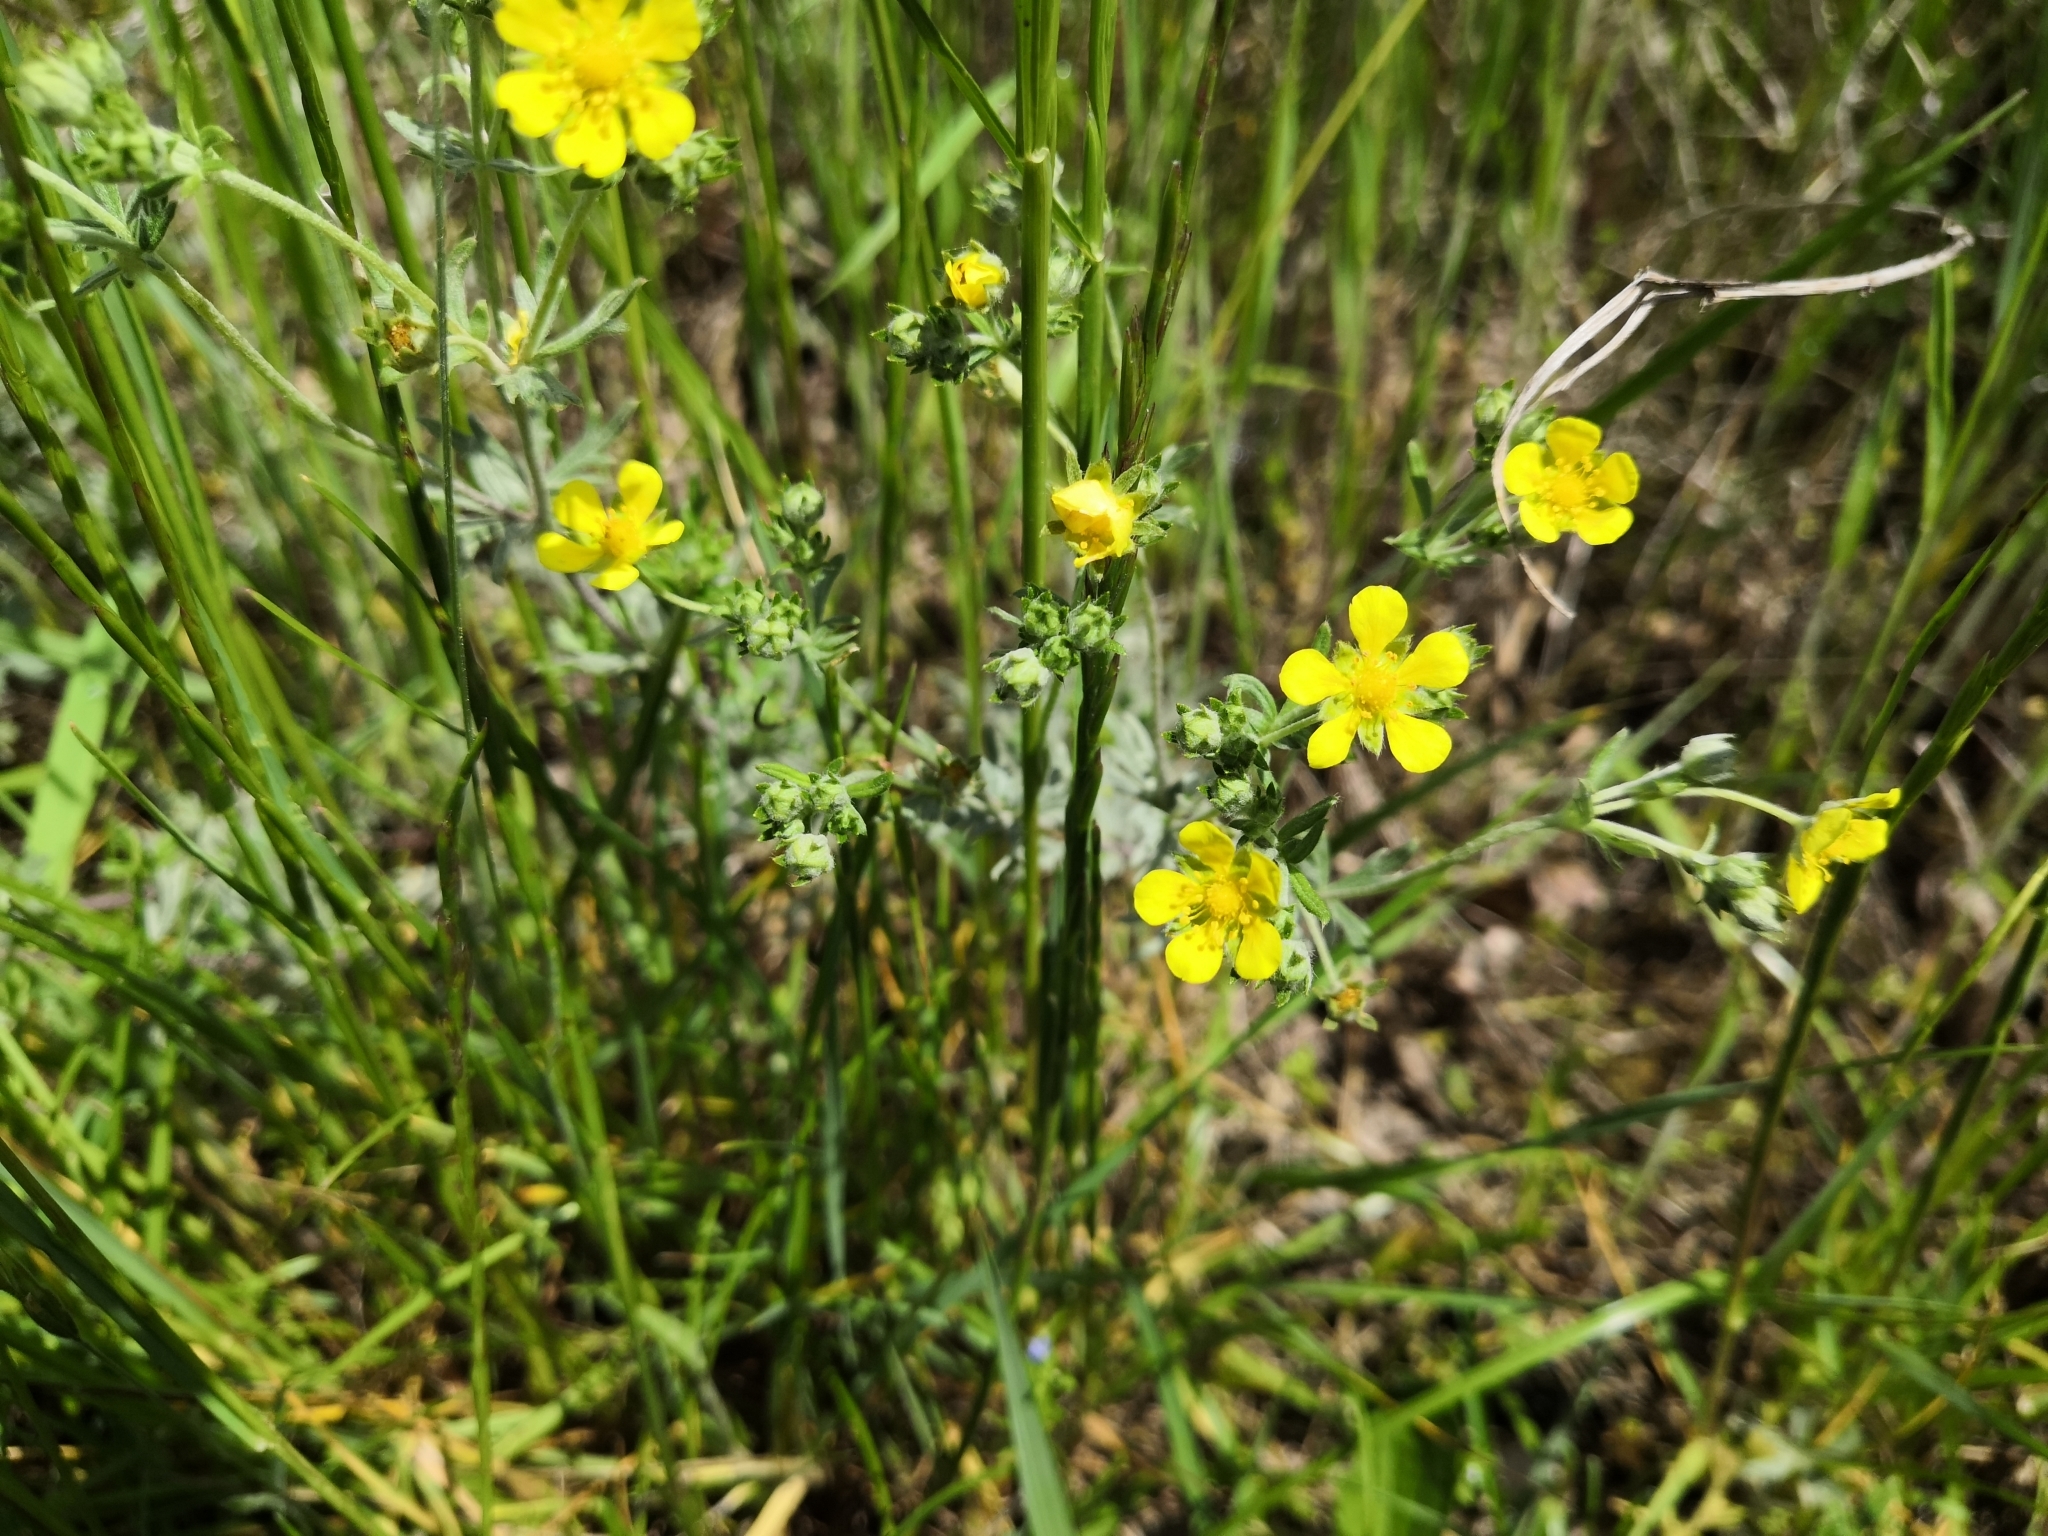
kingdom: Plantae
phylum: Tracheophyta
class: Magnoliopsida
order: Rosales
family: Rosaceae
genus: Potentilla
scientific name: Potentilla argentea
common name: Hoary cinquefoil
